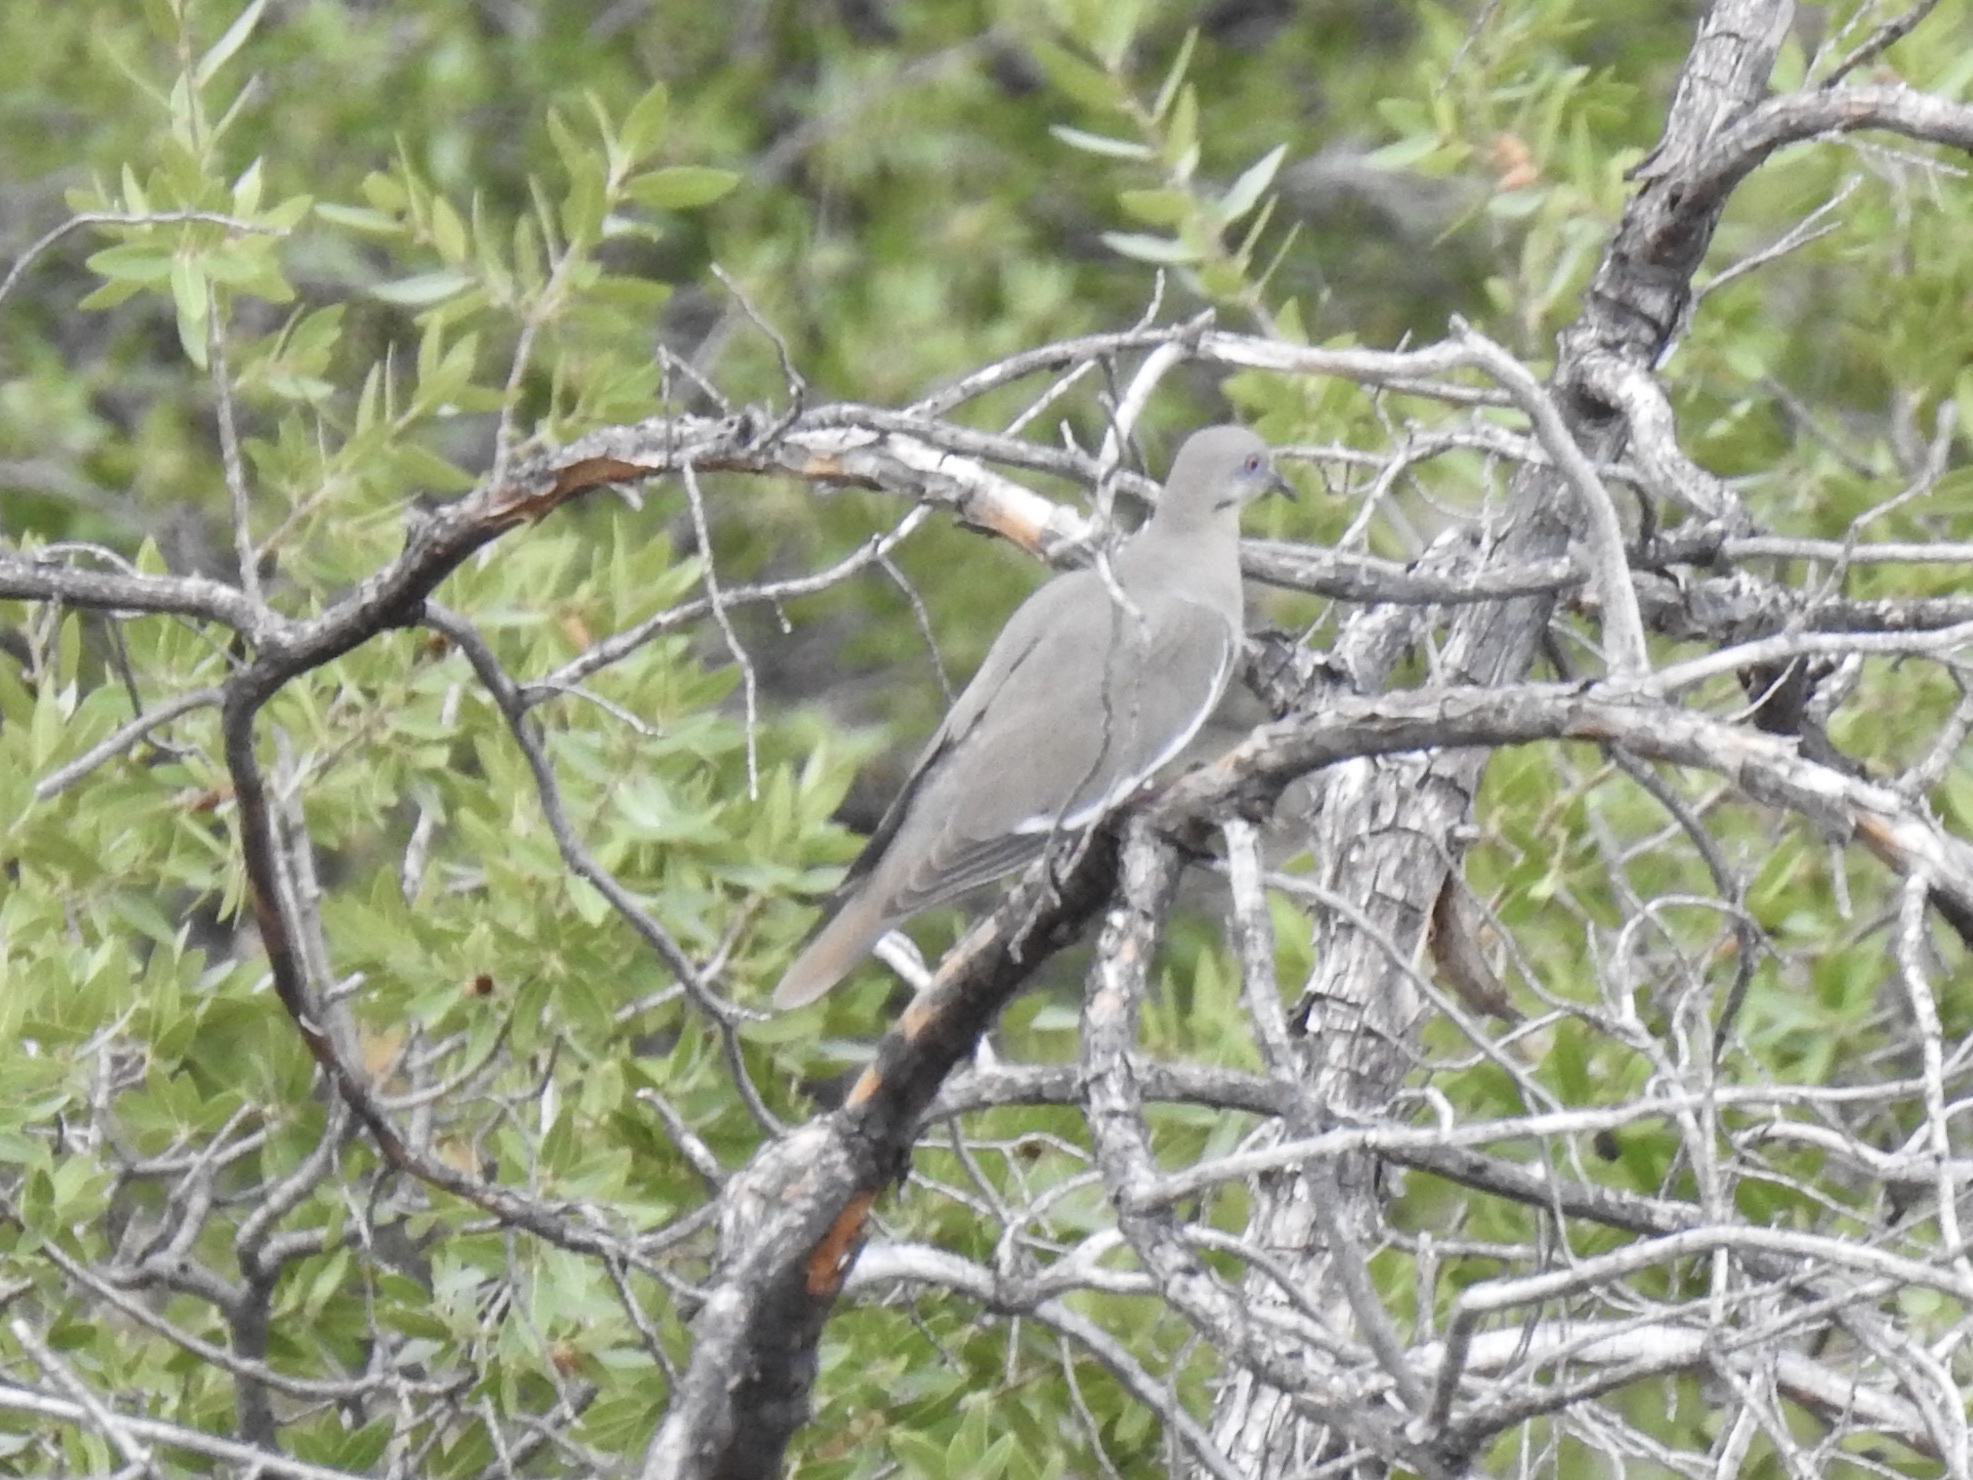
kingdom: Animalia
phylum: Chordata
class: Aves
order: Columbiformes
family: Columbidae
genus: Zenaida
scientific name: Zenaida asiatica
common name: White-winged dove
